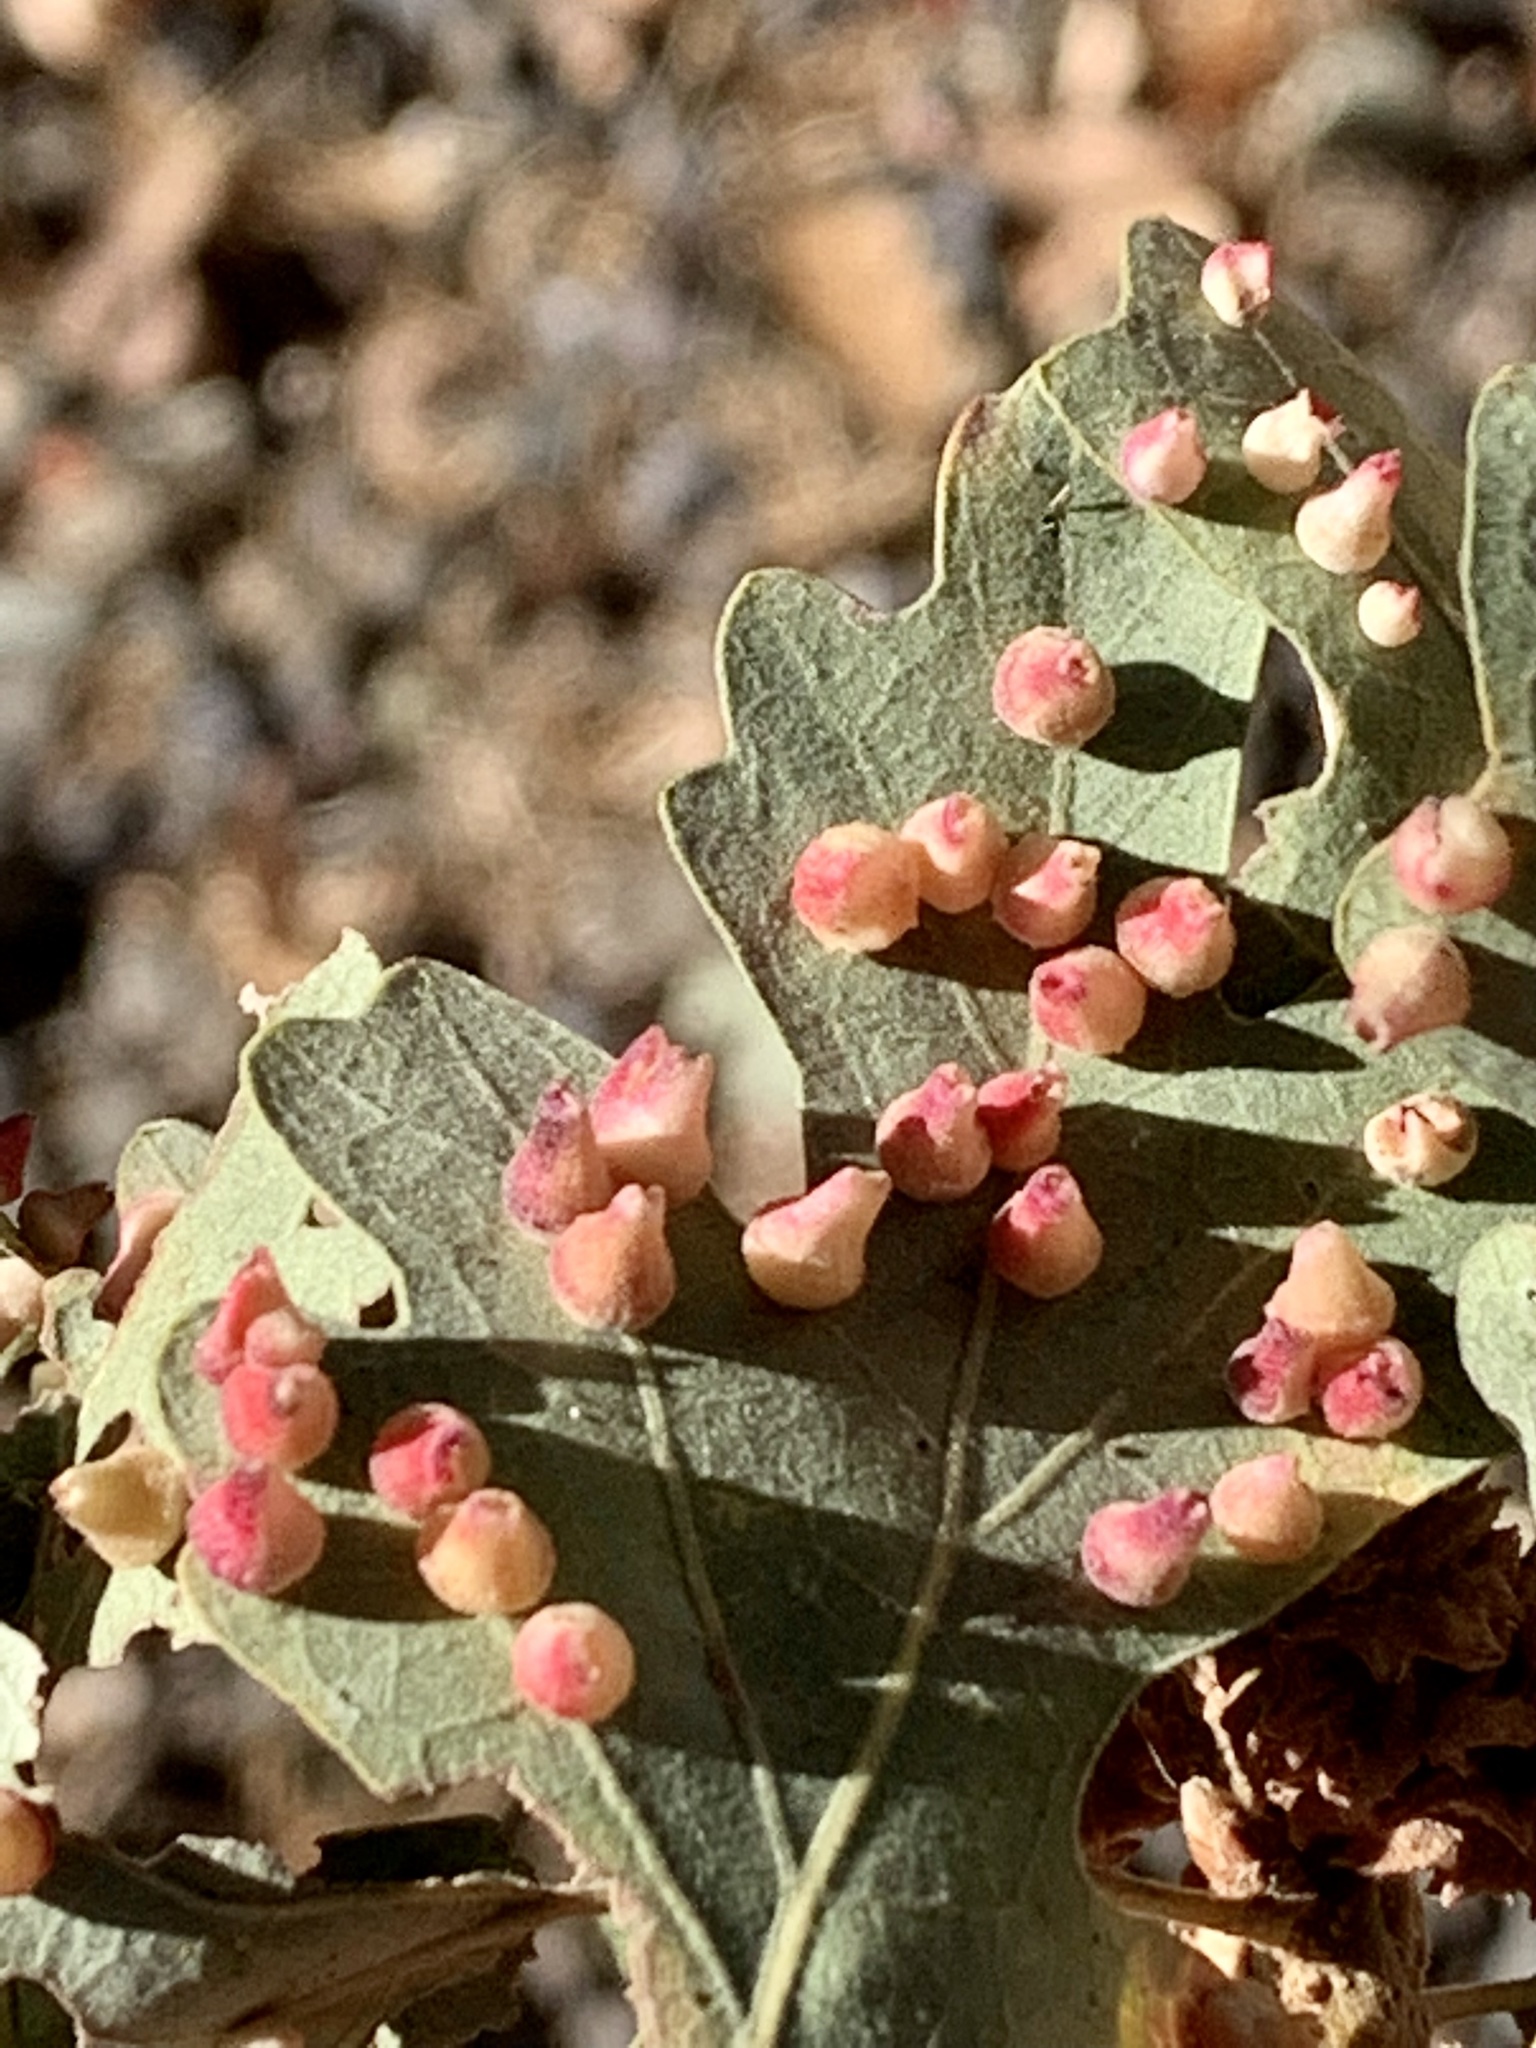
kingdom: Animalia
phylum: Arthropoda
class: Insecta
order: Hymenoptera
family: Cynipidae
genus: Andricus
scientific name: Andricus
